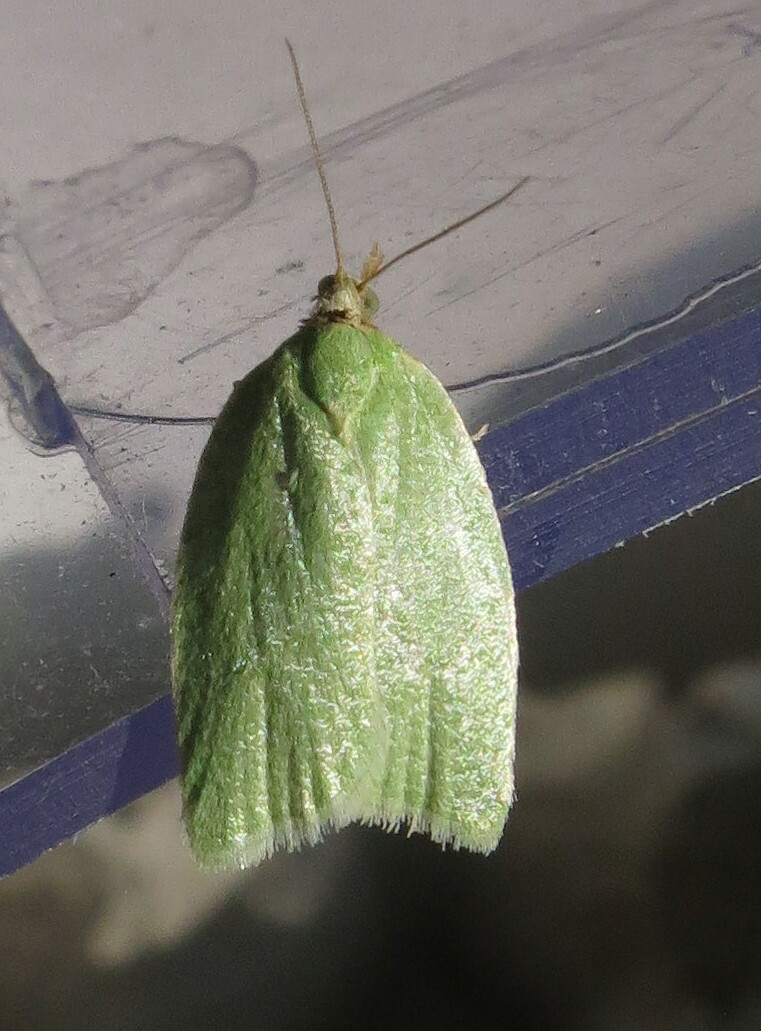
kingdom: Animalia
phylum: Arthropoda
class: Insecta
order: Lepidoptera
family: Tortricidae
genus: Tortrix
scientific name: Tortrix viridana
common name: Green oak tortrix
